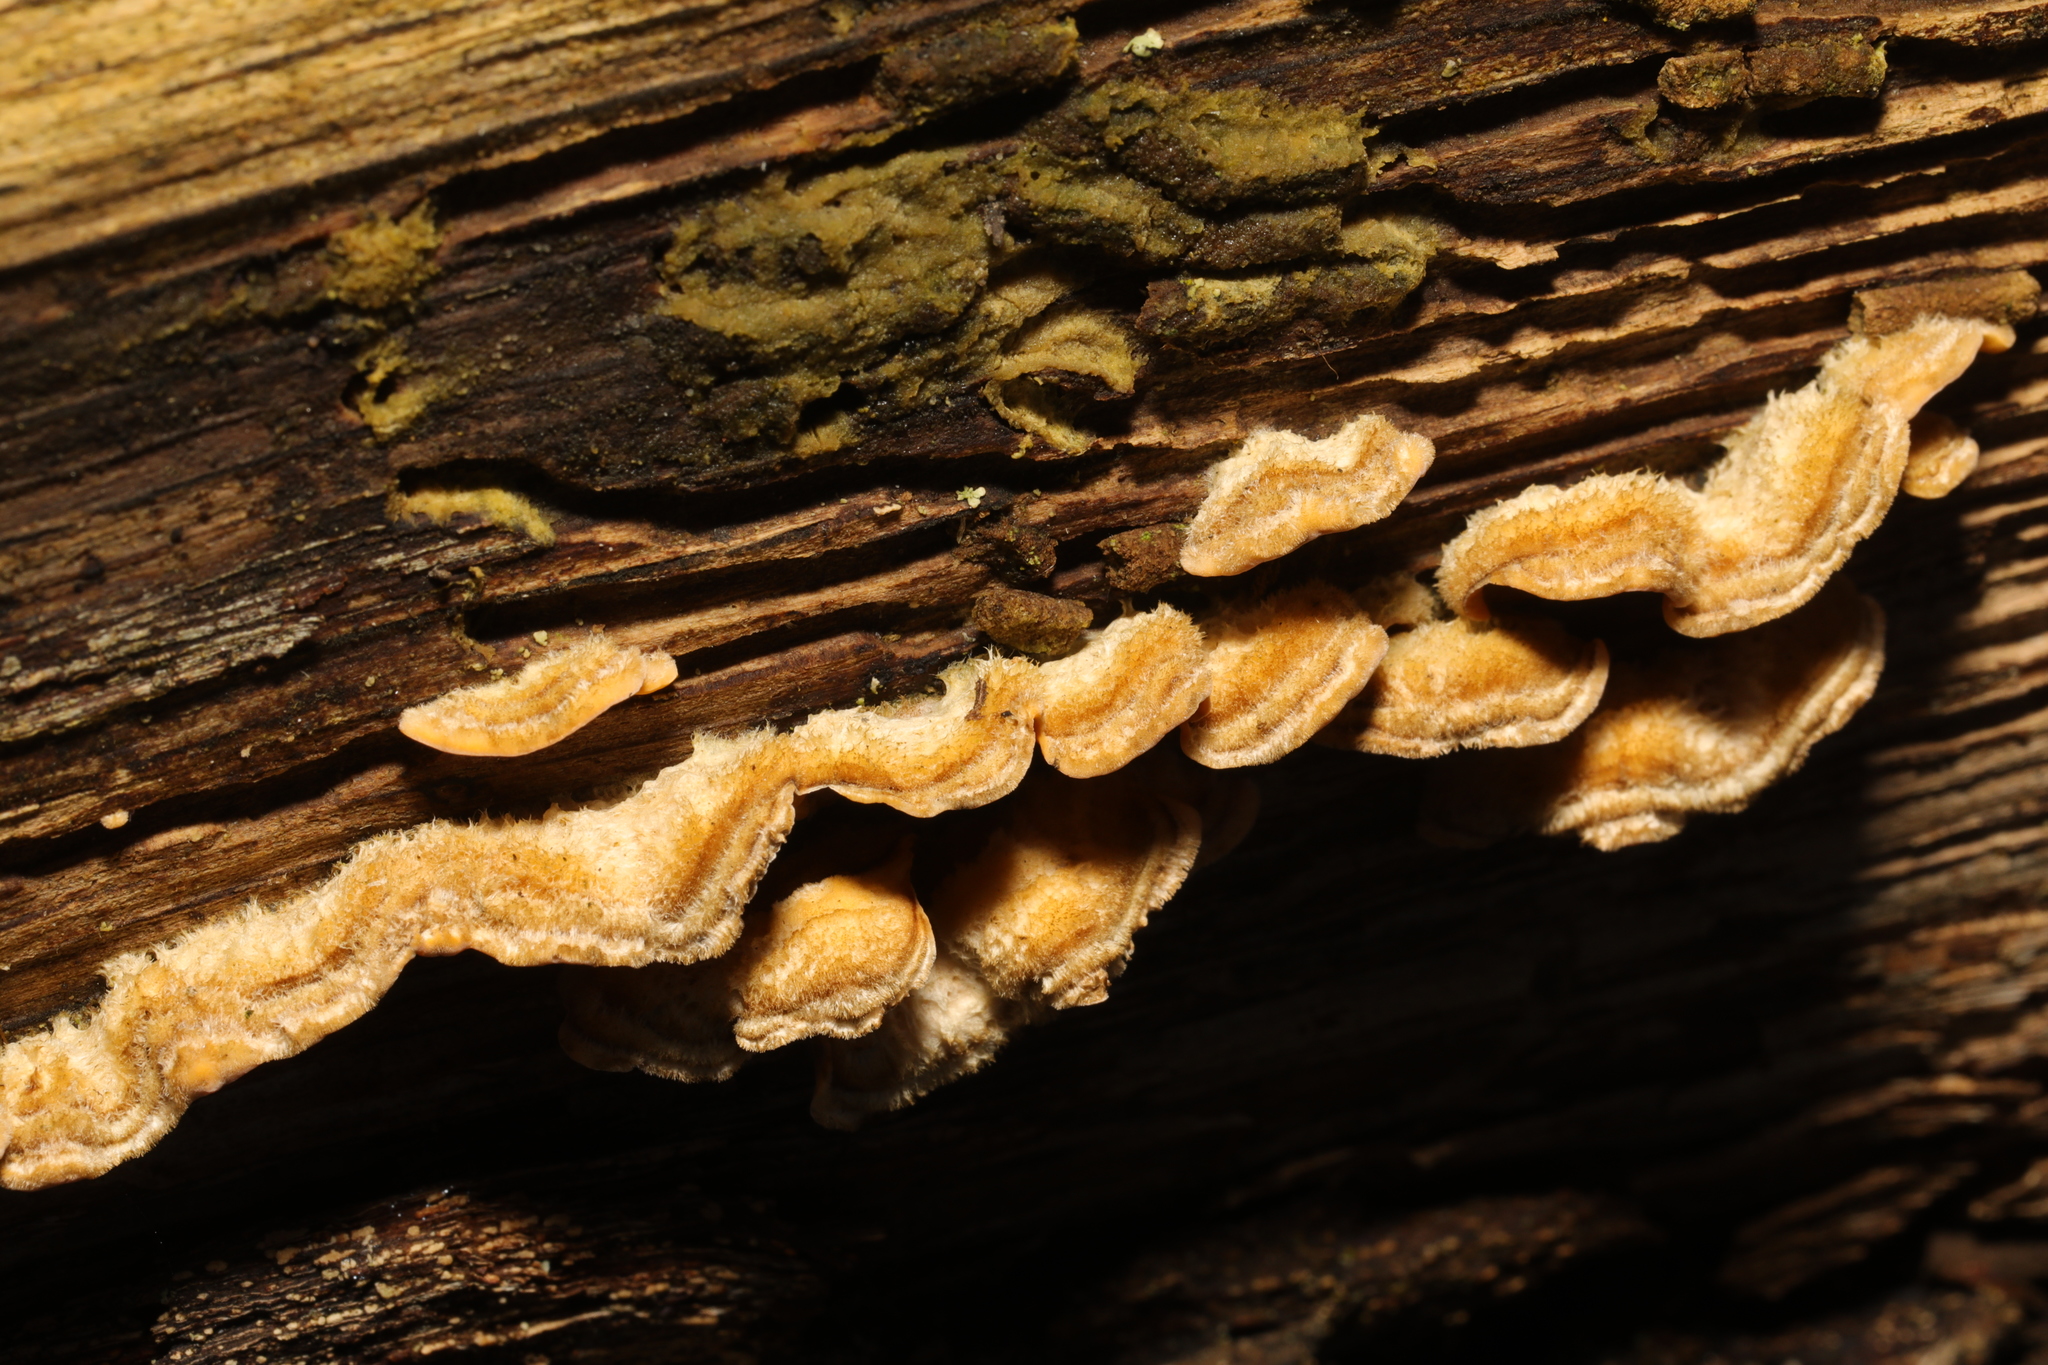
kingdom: Fungi
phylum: Basidiomycota
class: Agaricomycetes
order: Russulales
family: Stereaceae
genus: Stereum
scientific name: Stereum hirsutum
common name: Hairy curtain crust
